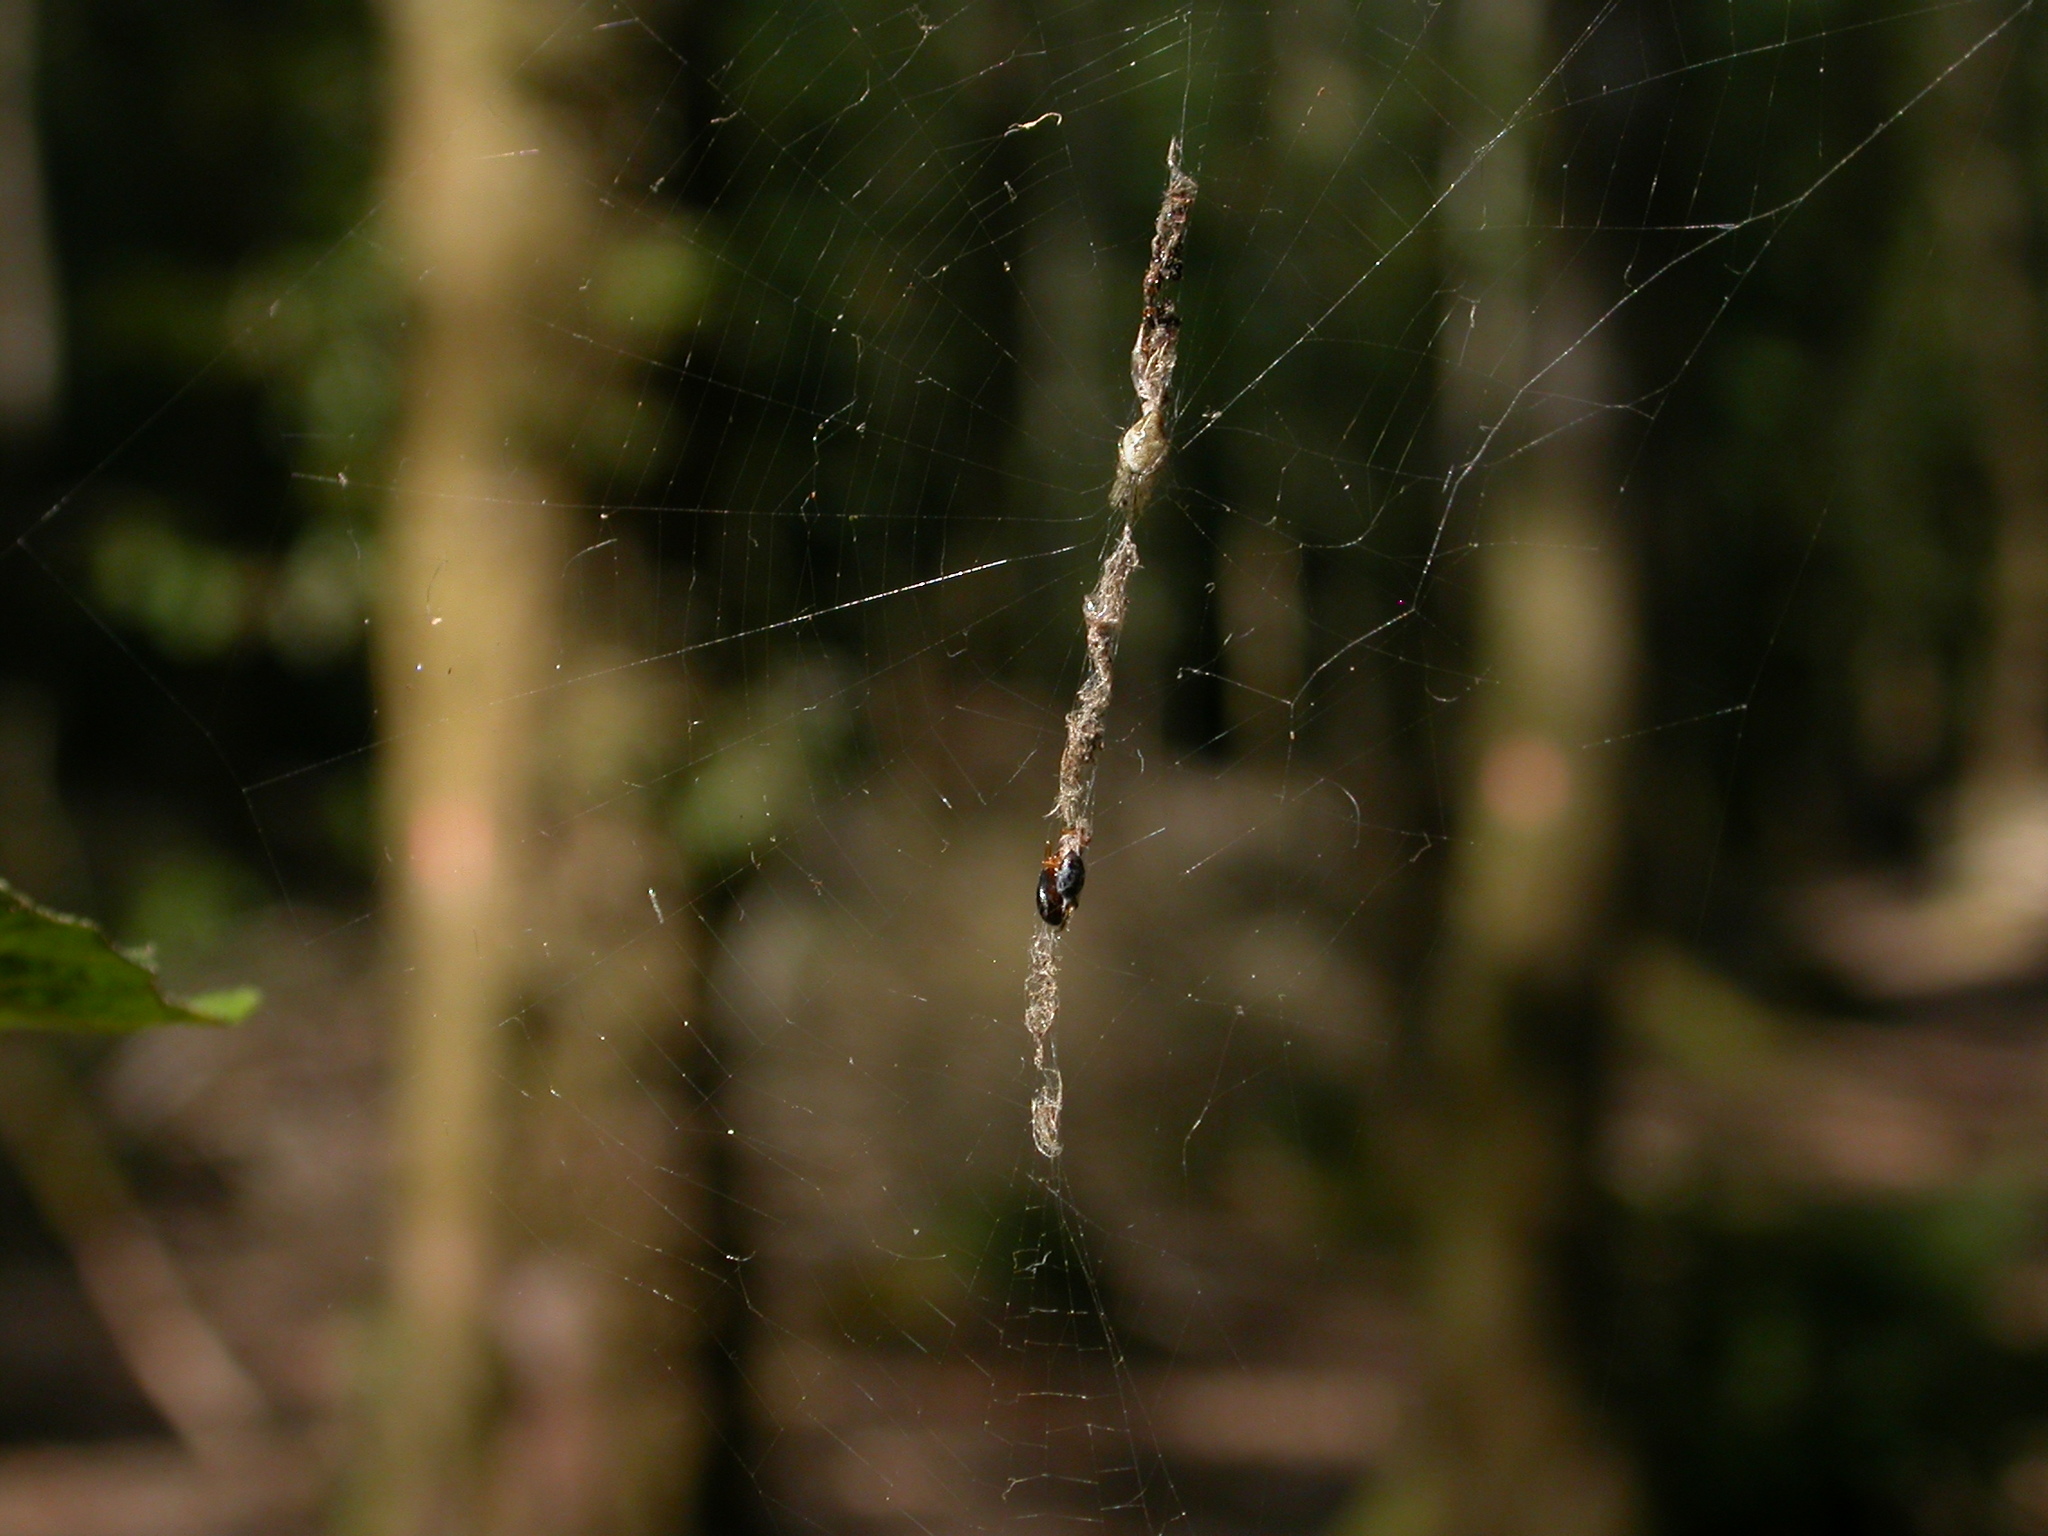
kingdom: Animalia
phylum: Arthropoda
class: Arachnida
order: Araneae
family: Araneidae
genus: Cyclosa
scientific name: Cyclosa conica
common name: Conical trashline orbweaver
